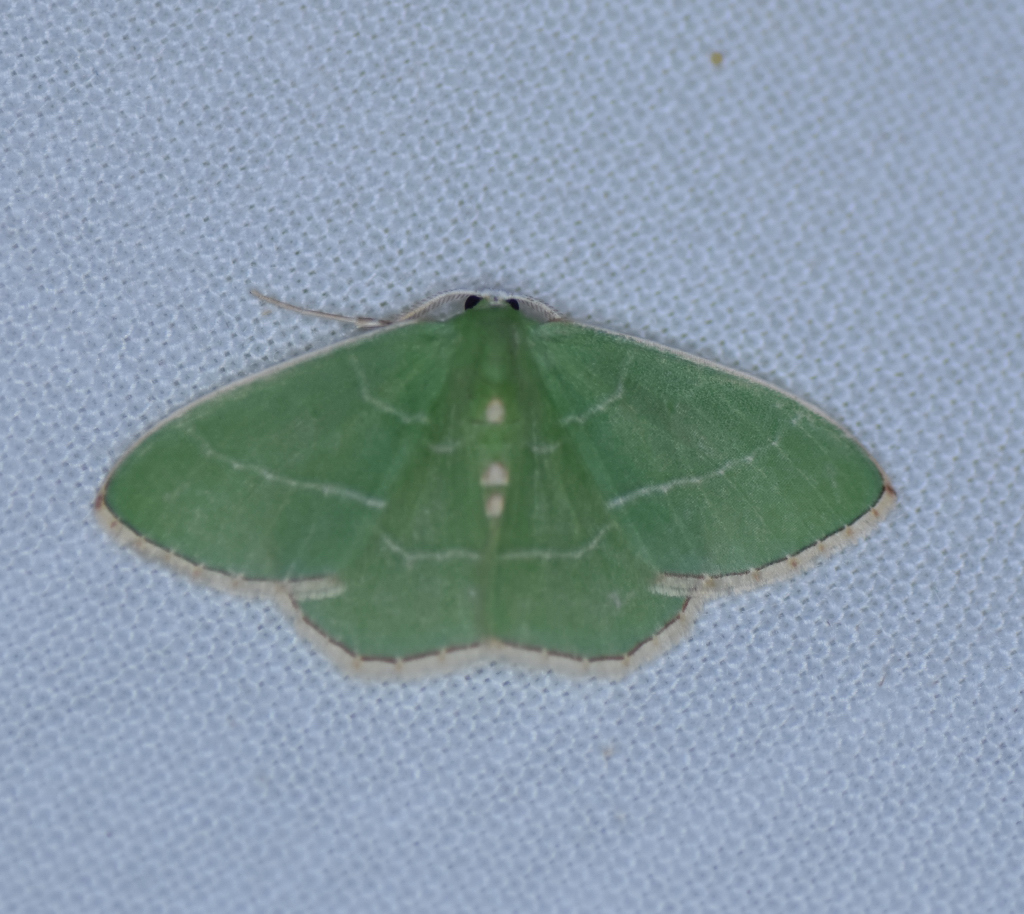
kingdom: Animalia
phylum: Arthropoda
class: Insecta
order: Lepidoptera
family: Geometridae
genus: Nemoria
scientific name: Nemoria bistriaria
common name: Red-fringed emerald
